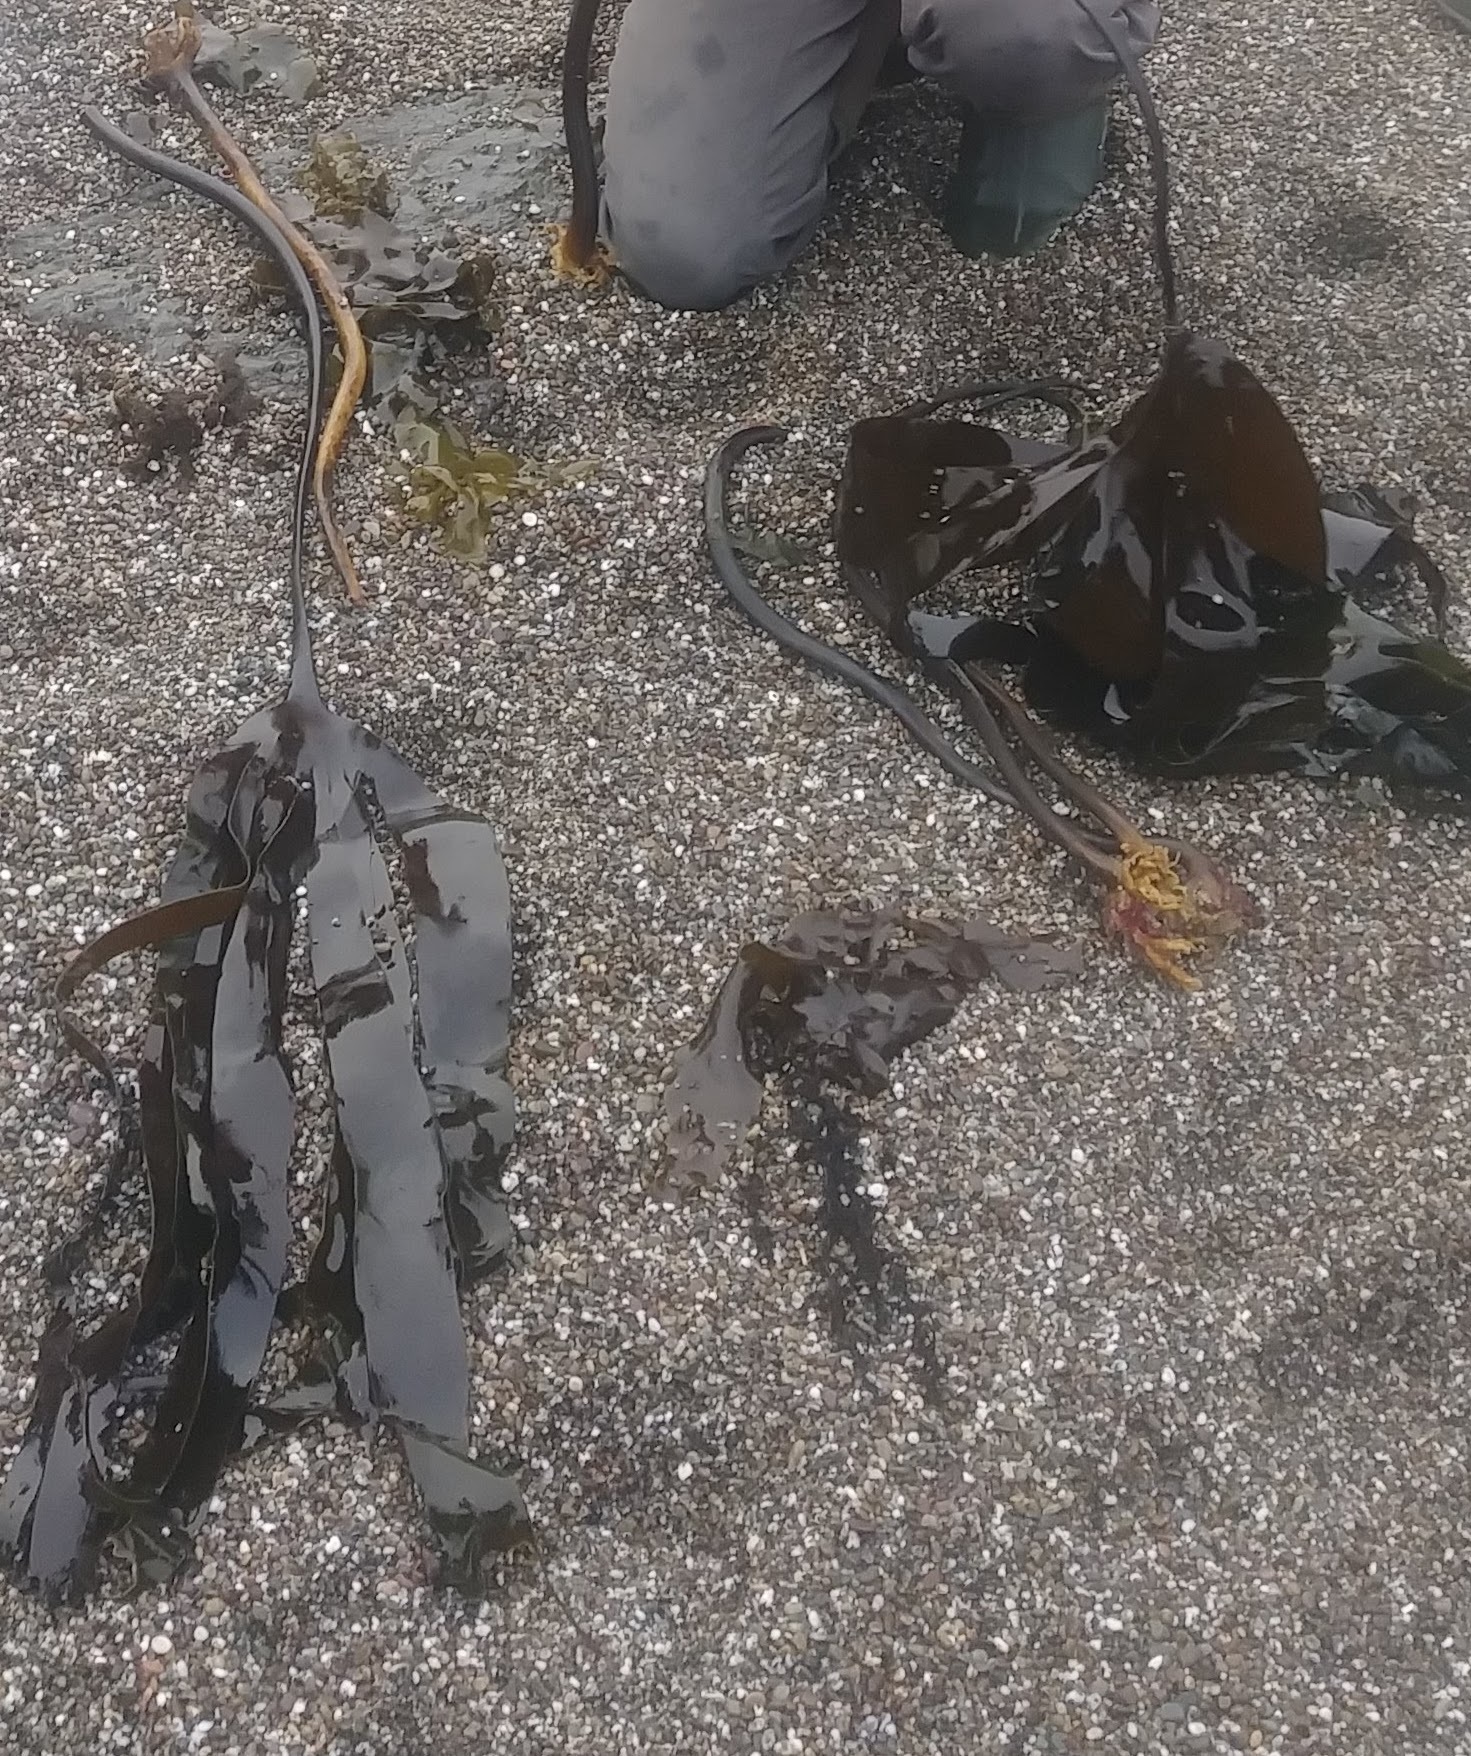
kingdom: Chromista
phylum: Ochrophyta
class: Phaeophyceae
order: Laminariales
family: Laminariaceae
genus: Laminaria
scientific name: Laminaria setchellii
